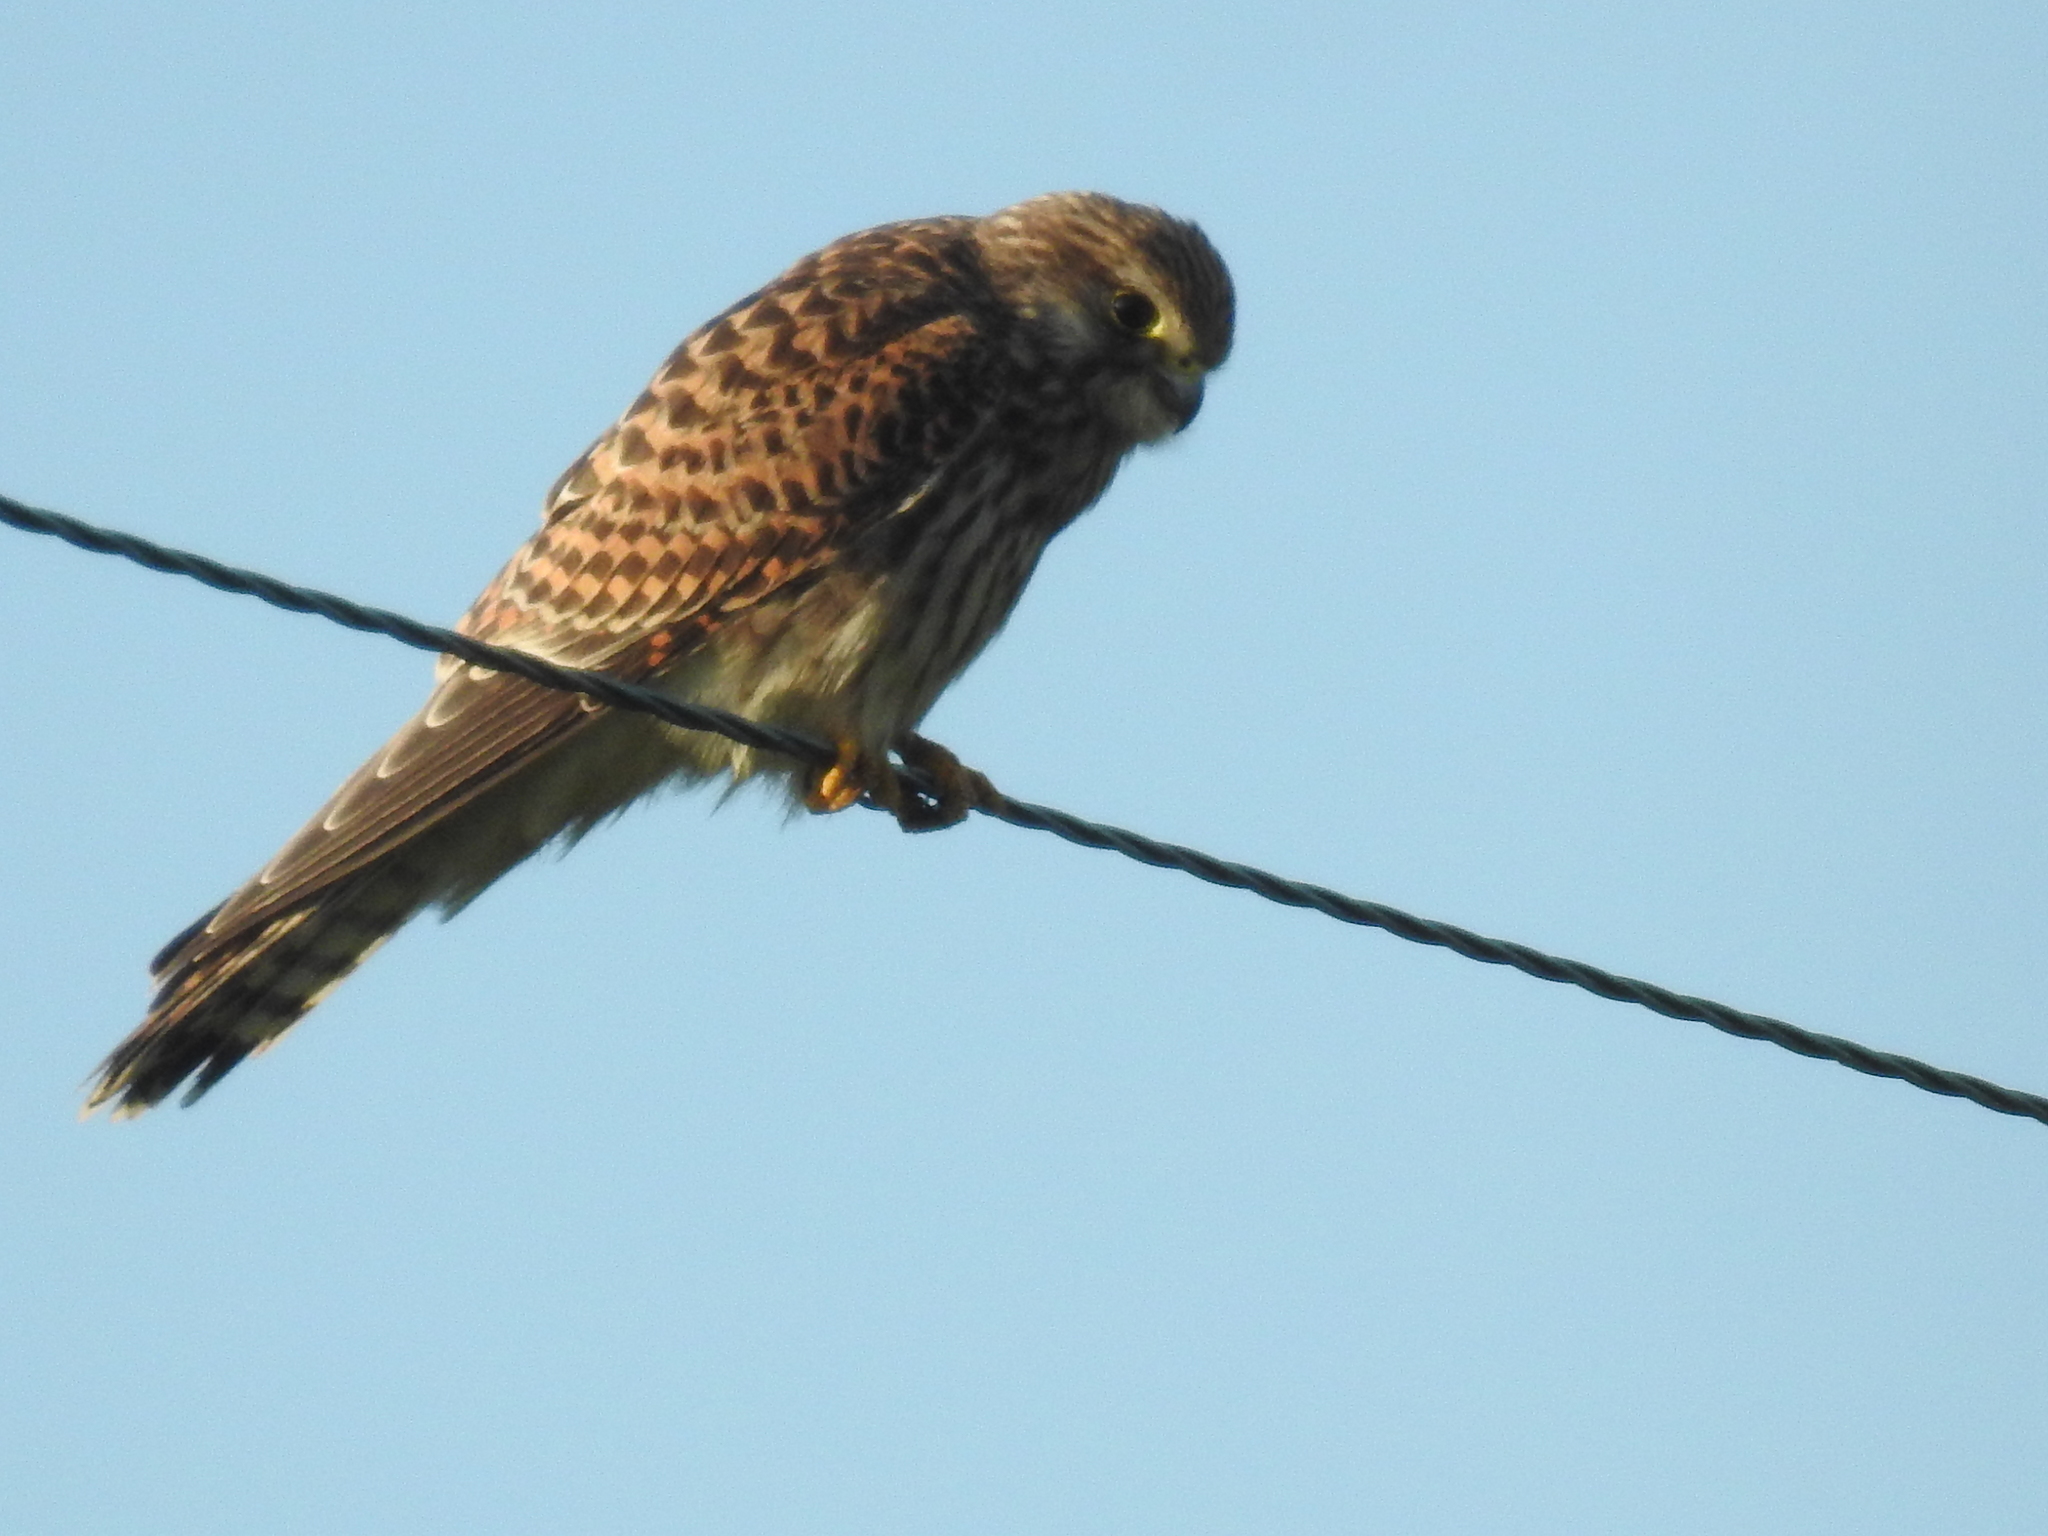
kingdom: Animalia
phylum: Chordata
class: Aves
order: Falconiformes
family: Falconidae
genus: Falco
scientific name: Falco tinnunculus
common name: Common kestrel
